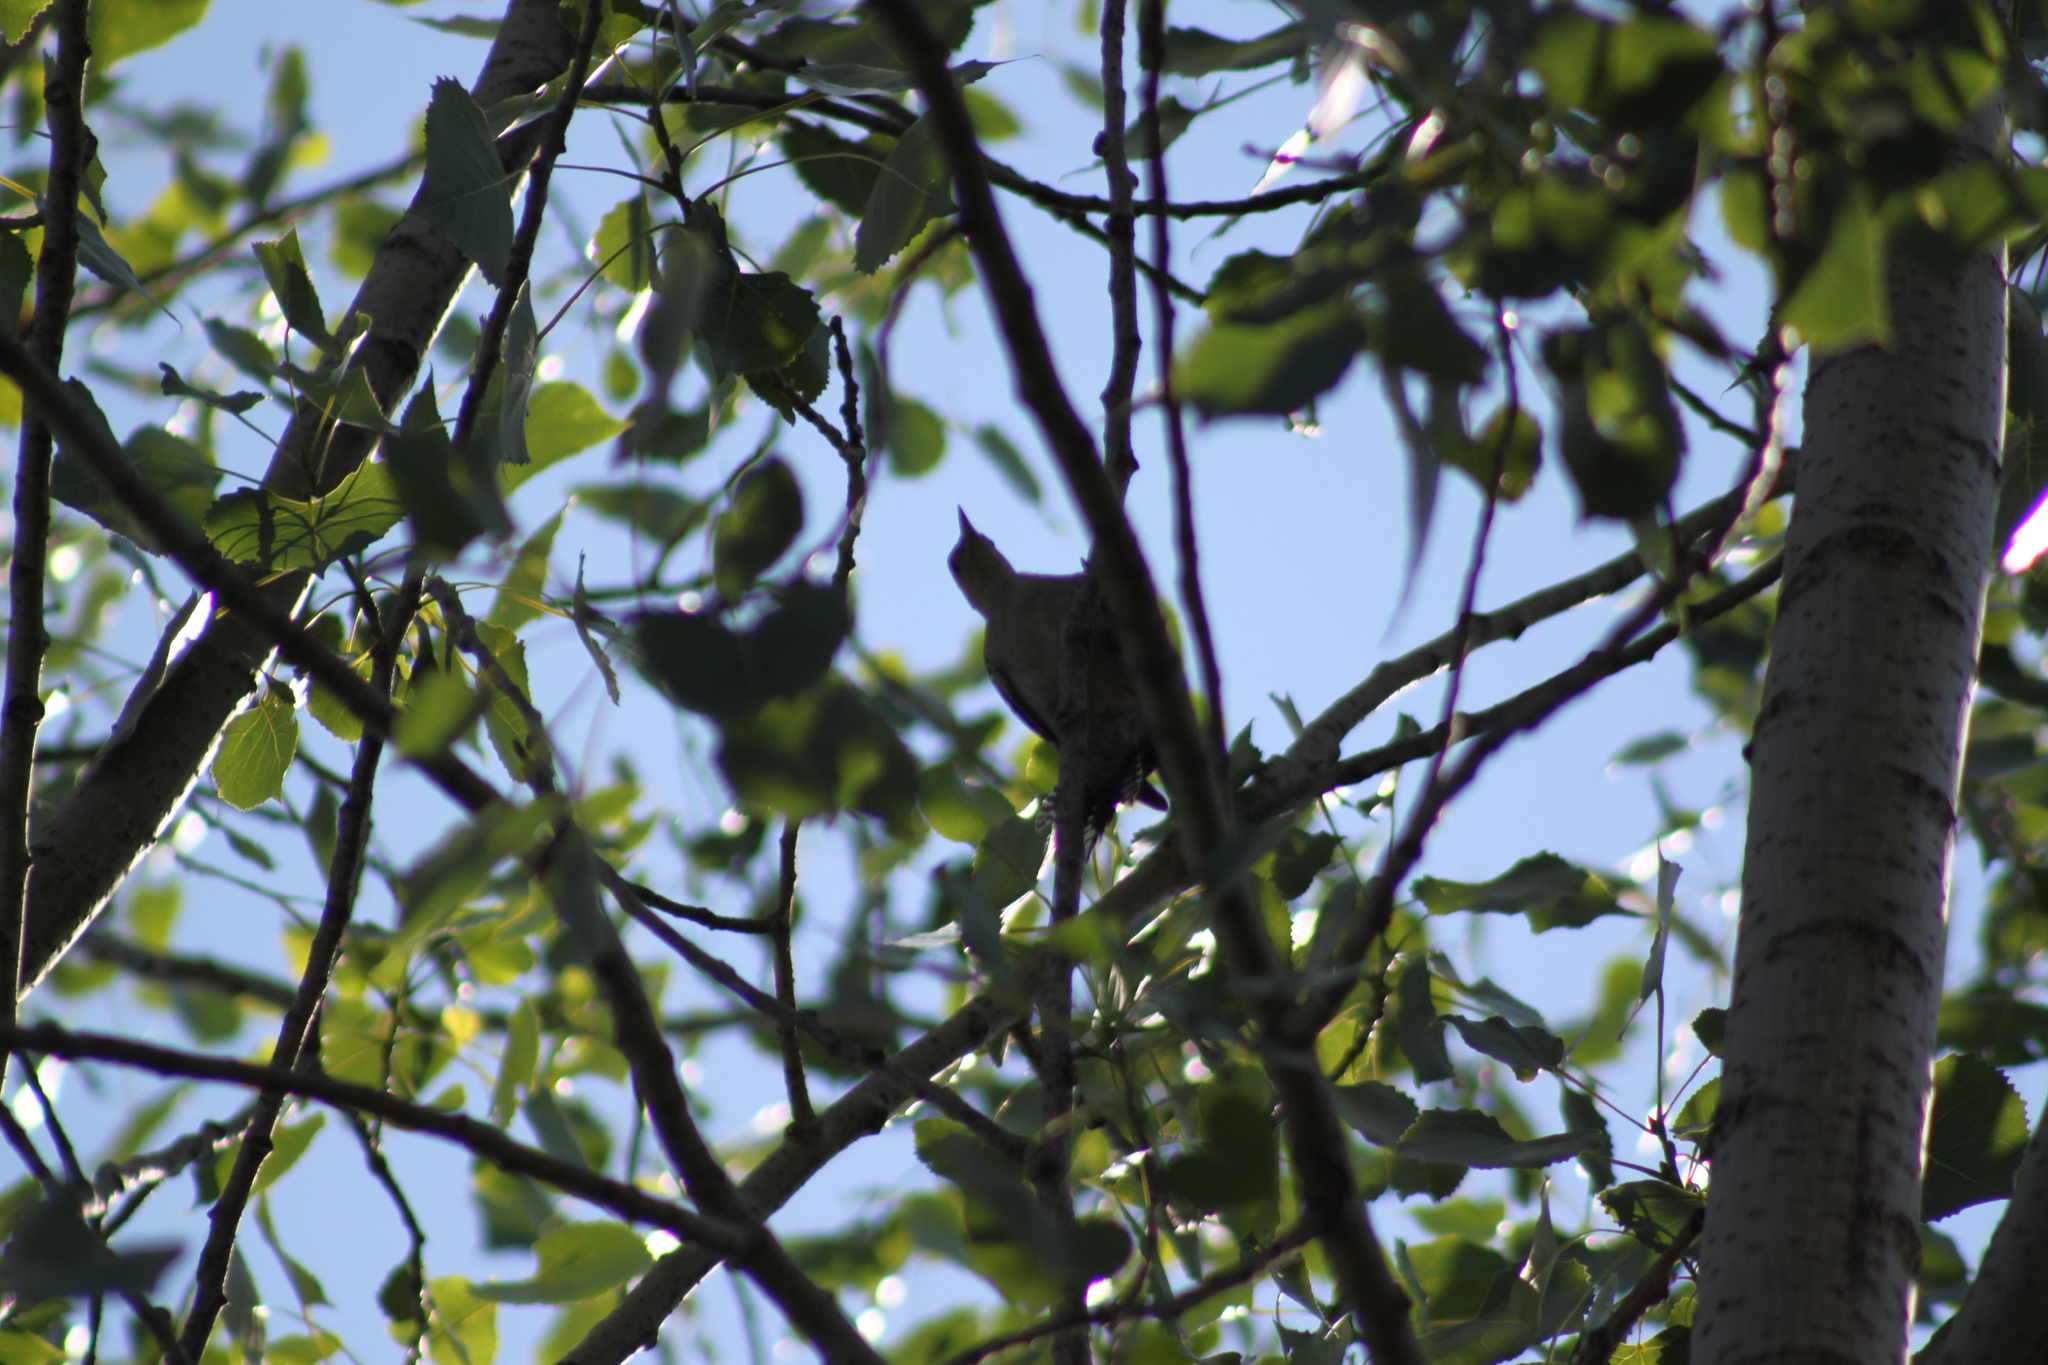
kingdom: Animalia
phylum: Chordata
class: Aves
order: Piciformes
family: Picidae
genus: Melanerpes
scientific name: Melanerpes carolinus
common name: Red-bellied woodpecker
